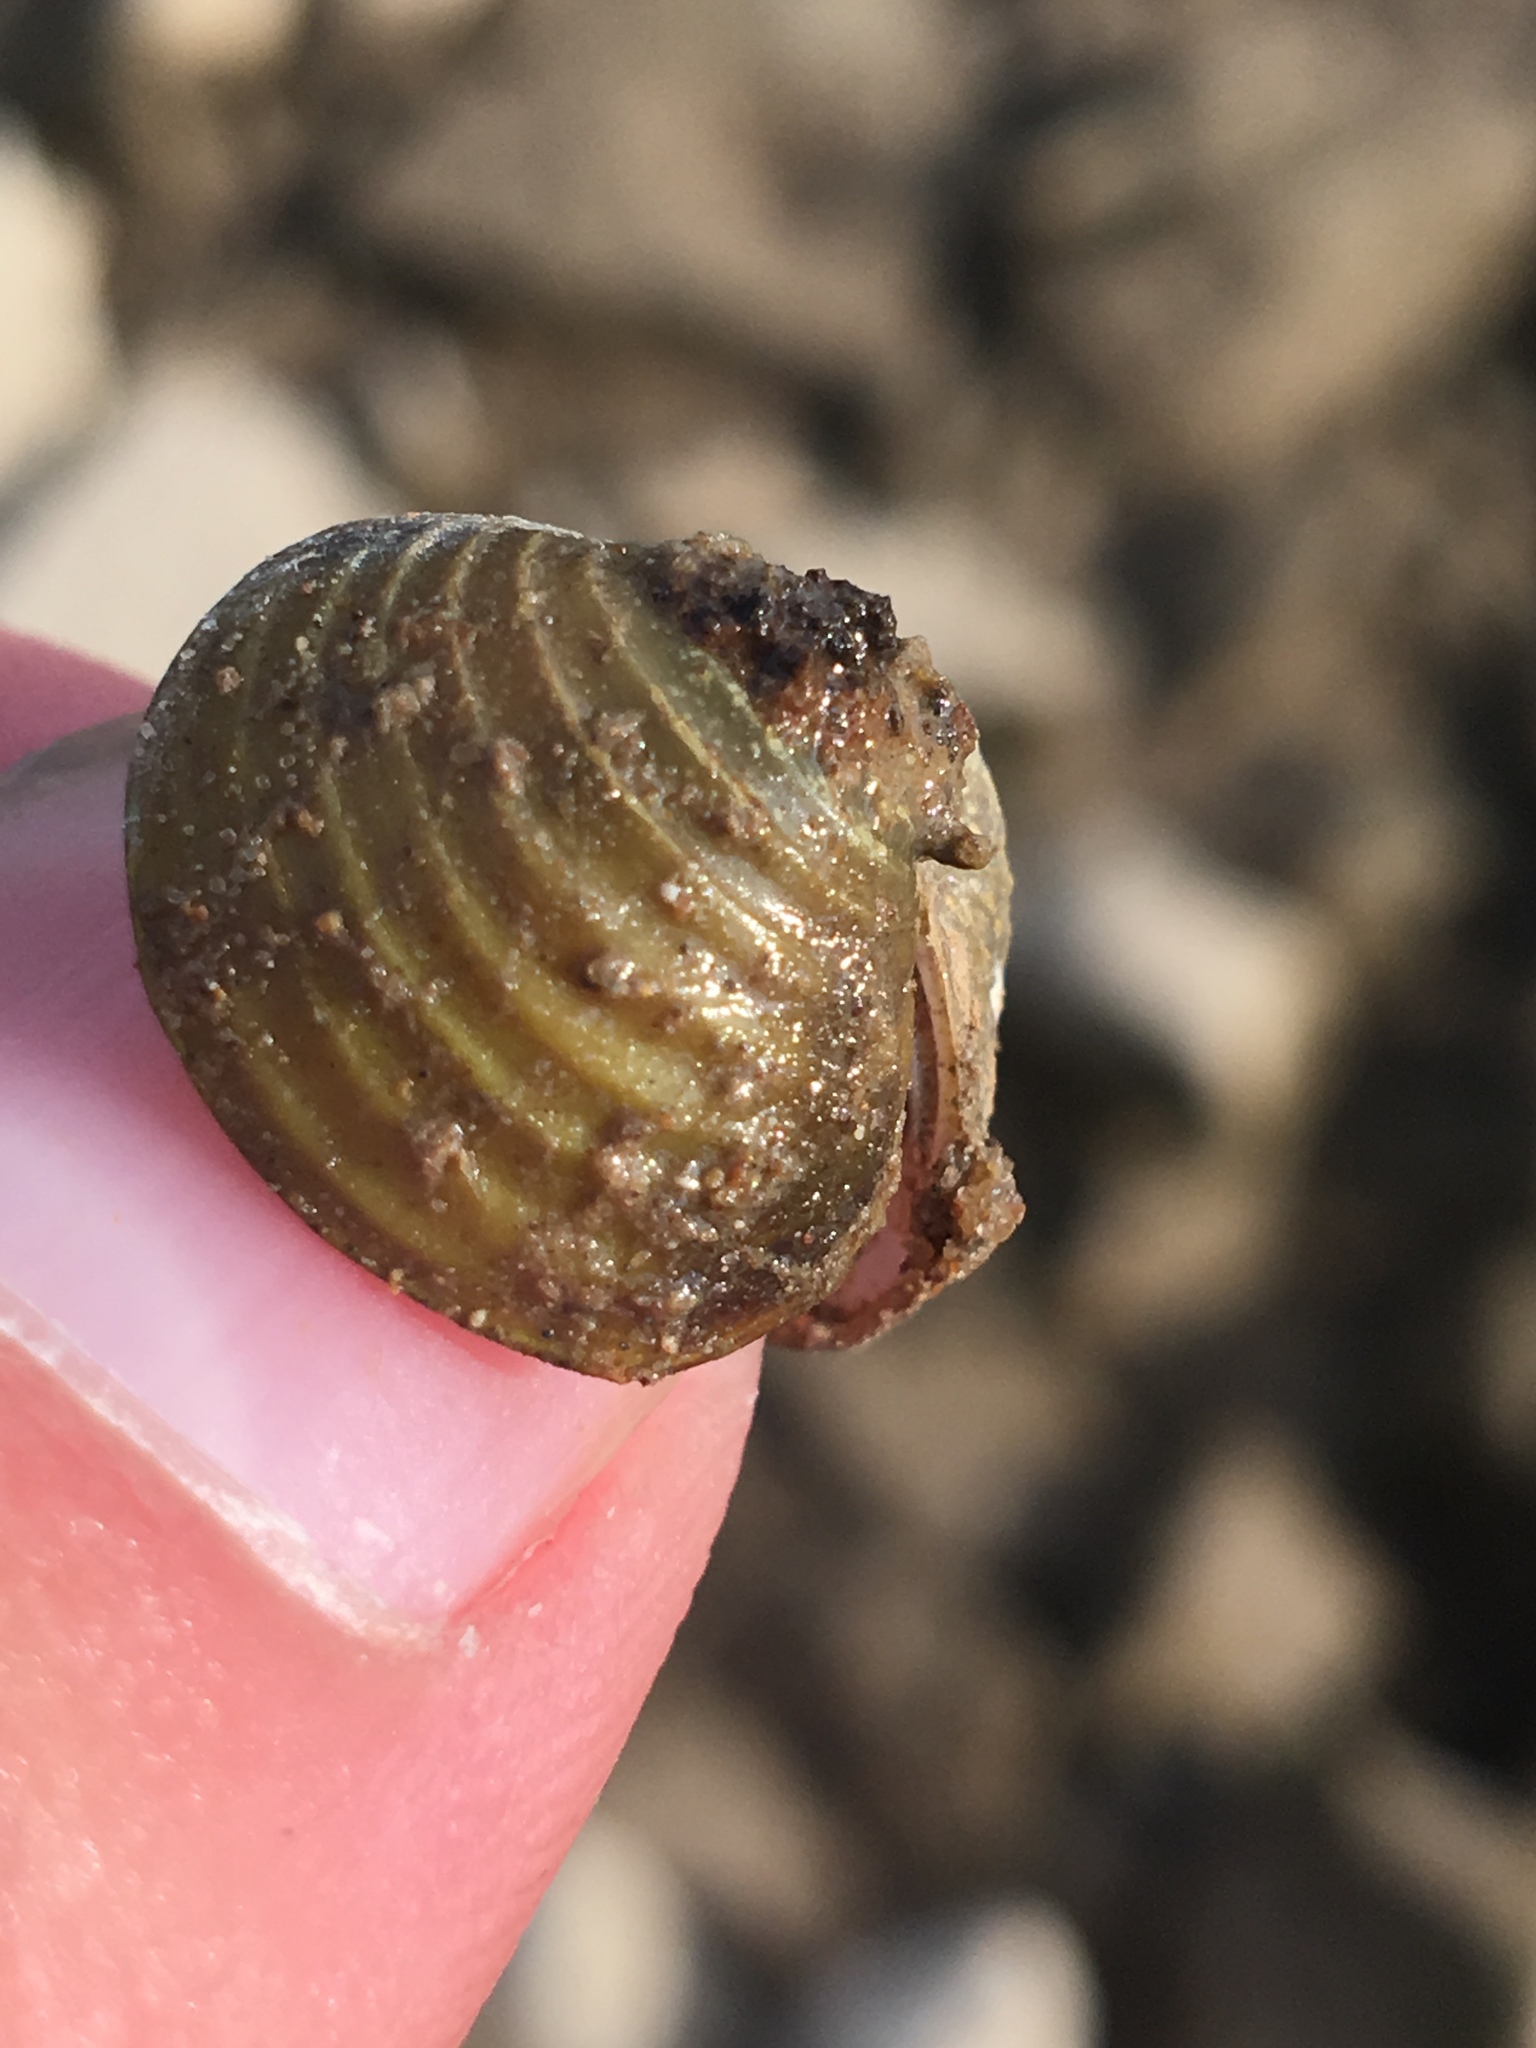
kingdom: Animalia
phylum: Mollusca
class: Bivalvia
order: Venerida
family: Cyrenidae
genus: Corbicula
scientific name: Corbicula fluminea
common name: Asian clam
